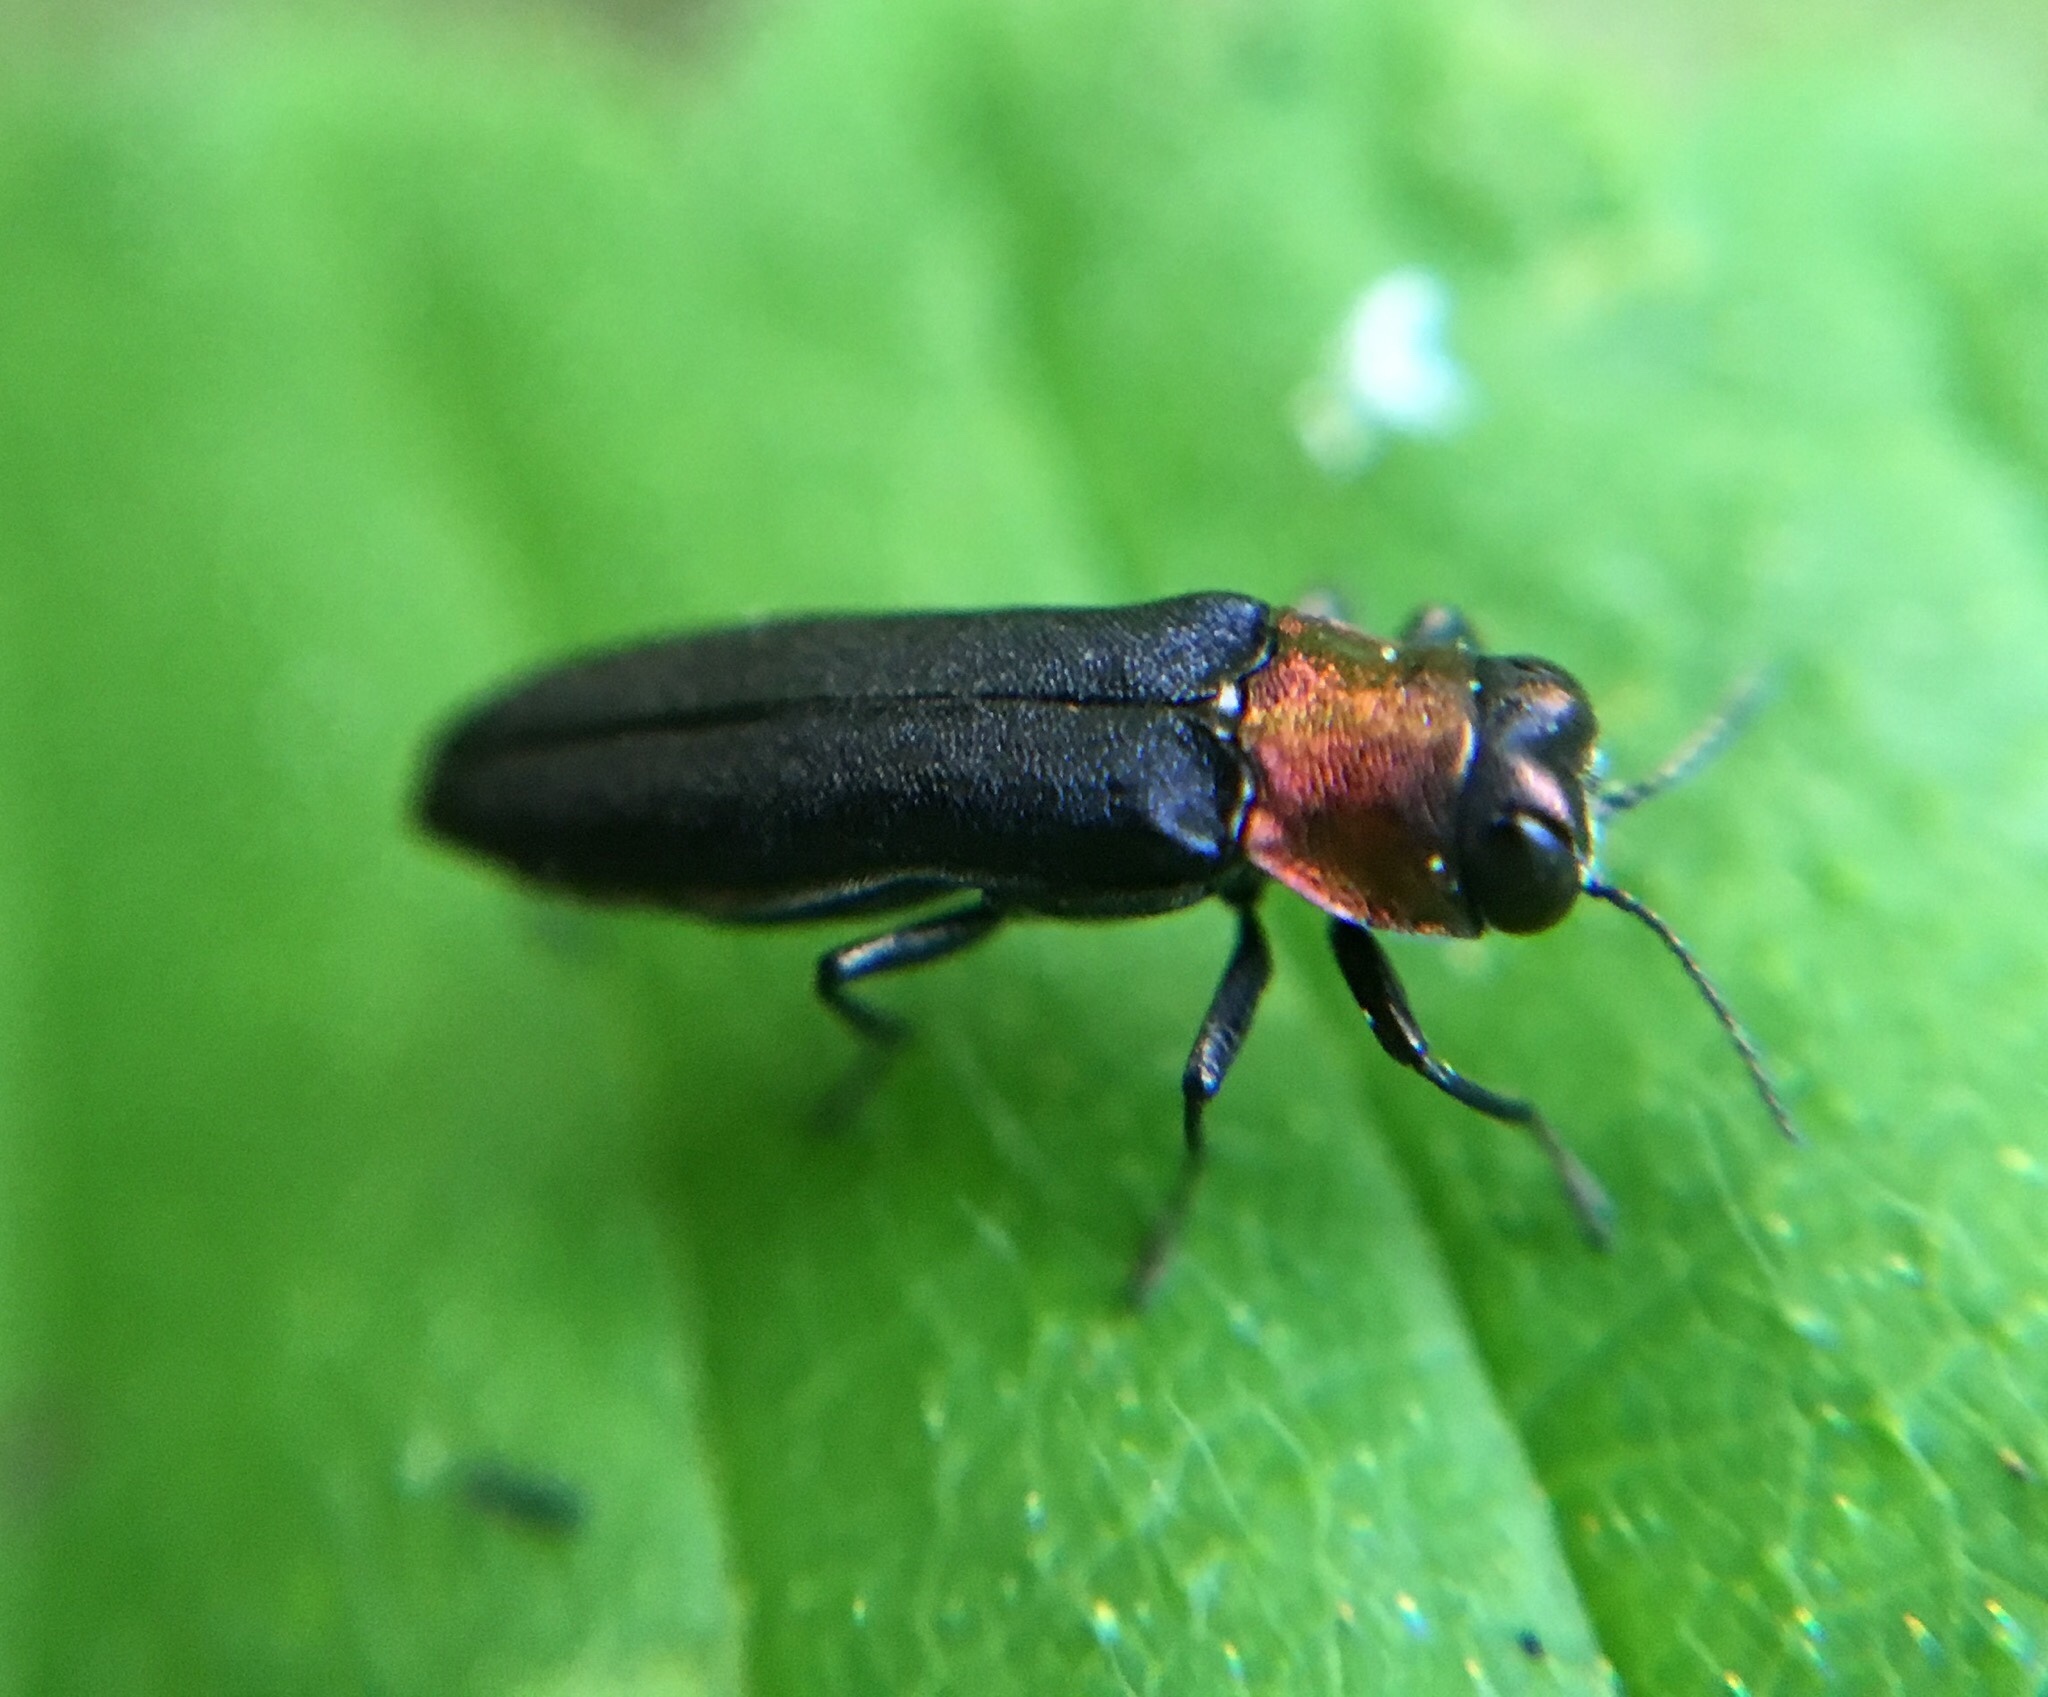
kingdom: Animalia
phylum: Arthropoda
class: Insecta
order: Coleoptera
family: Buprestidae
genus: Agrilus
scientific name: Agrilus ruficollis
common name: Red-necked cane borer beetle
